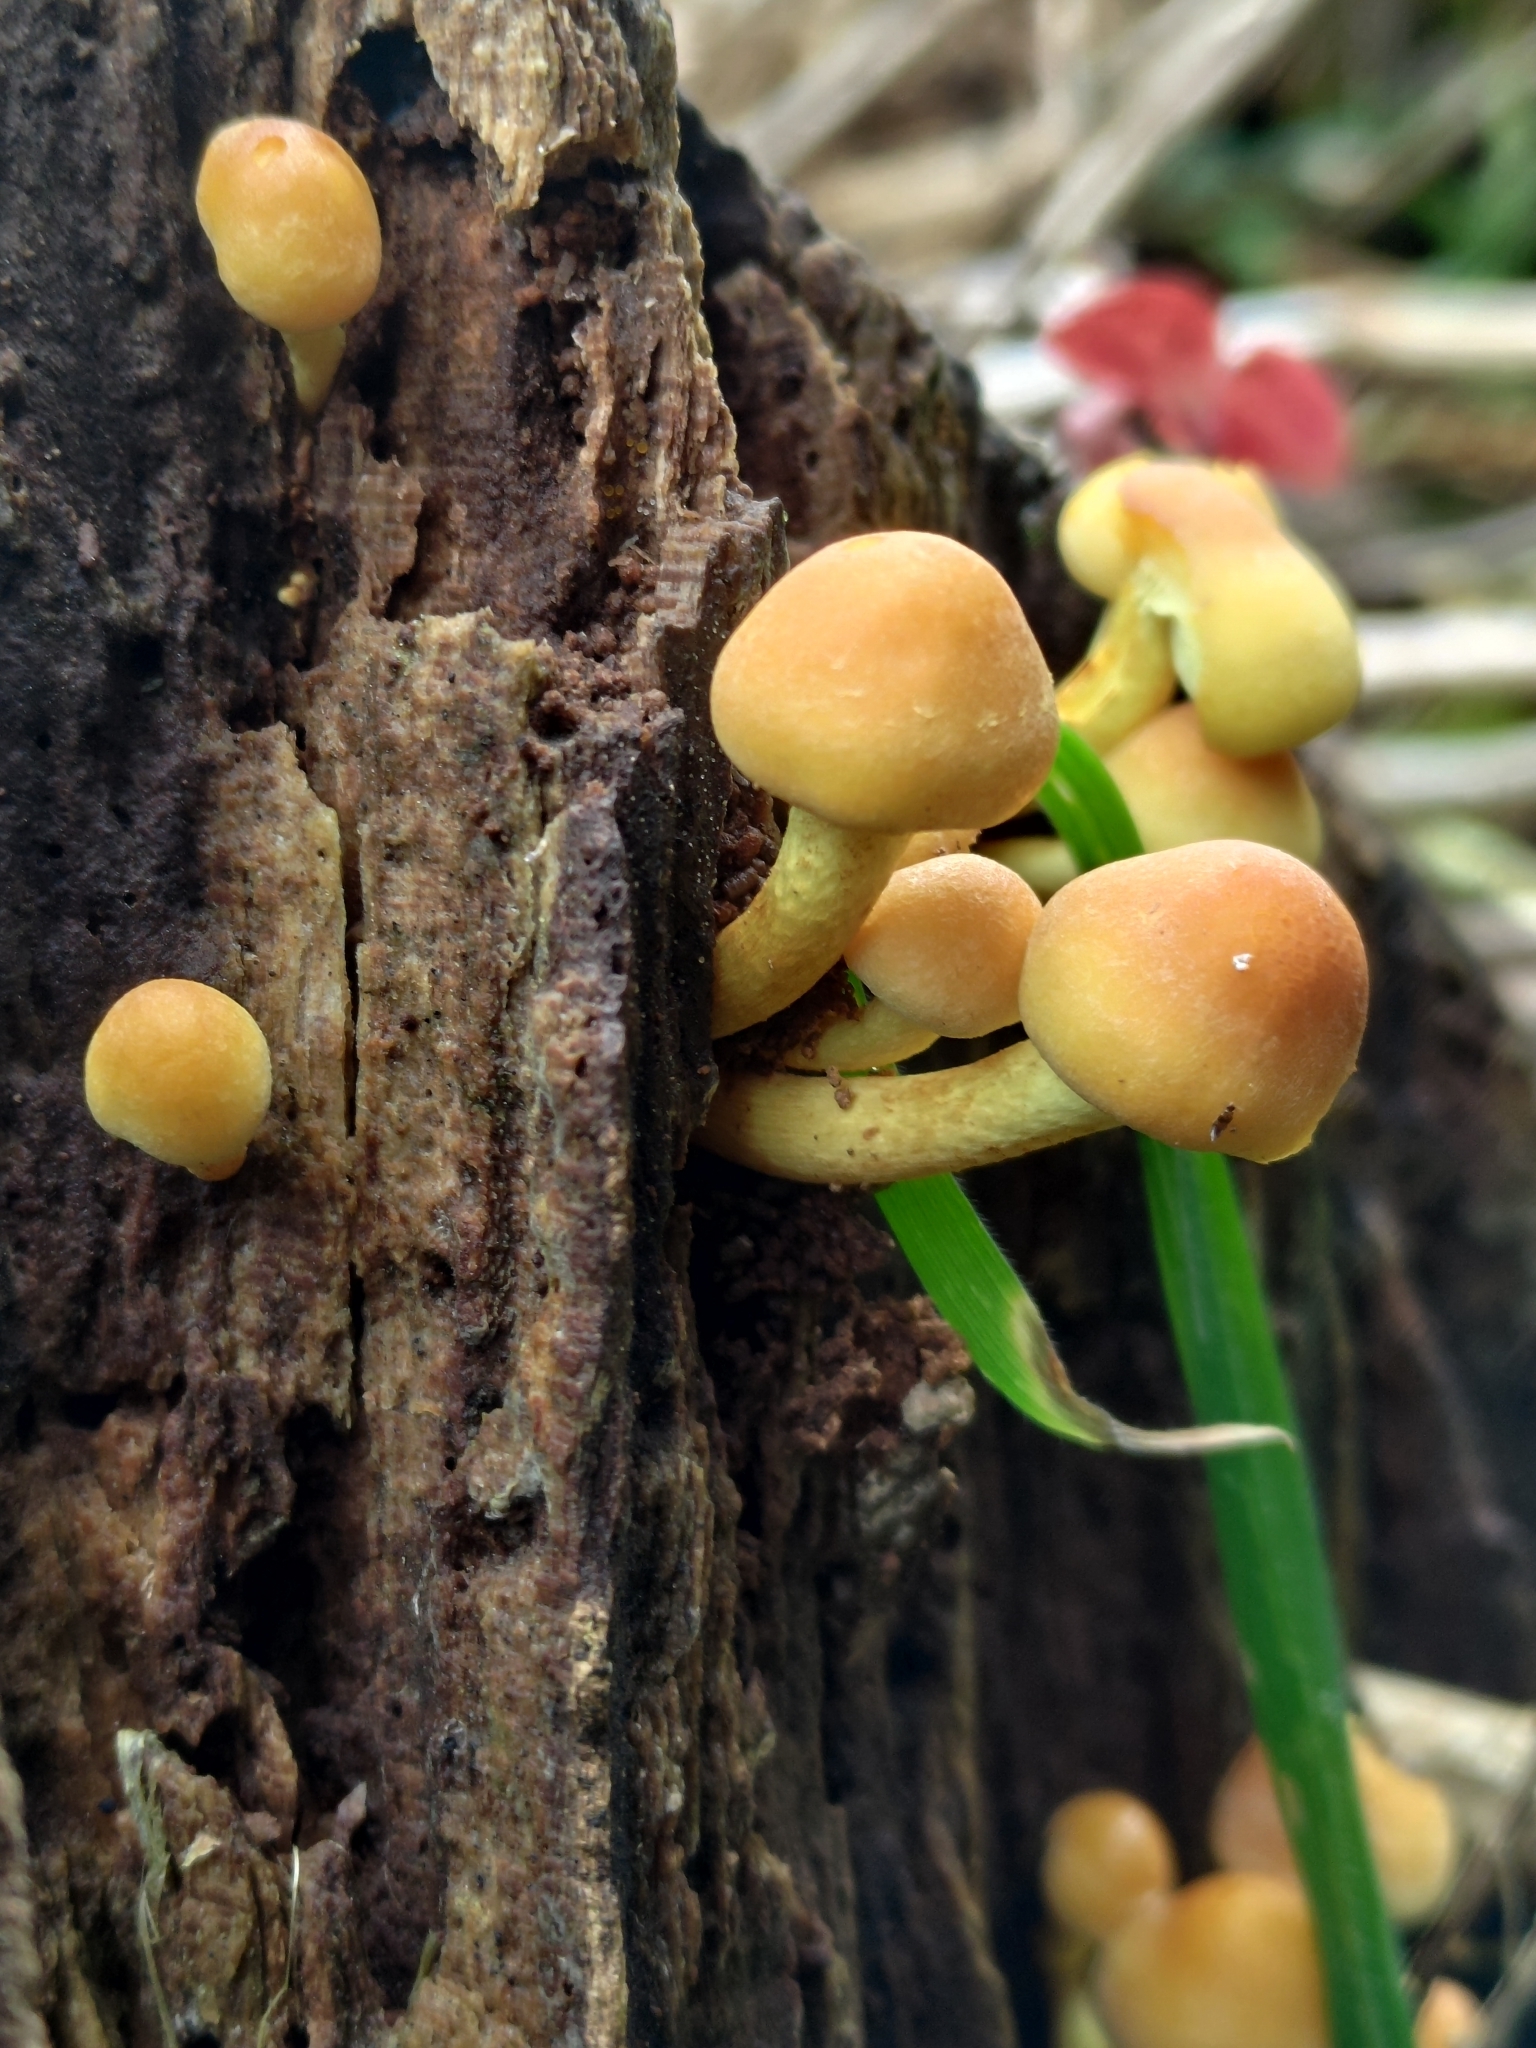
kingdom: Fungi
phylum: Basidiomycota
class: Agaricomycetes
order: Agaricales
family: Strophariaceae
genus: Hypholoma
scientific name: Hypholoma fasciculare
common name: Sulphur tuft
